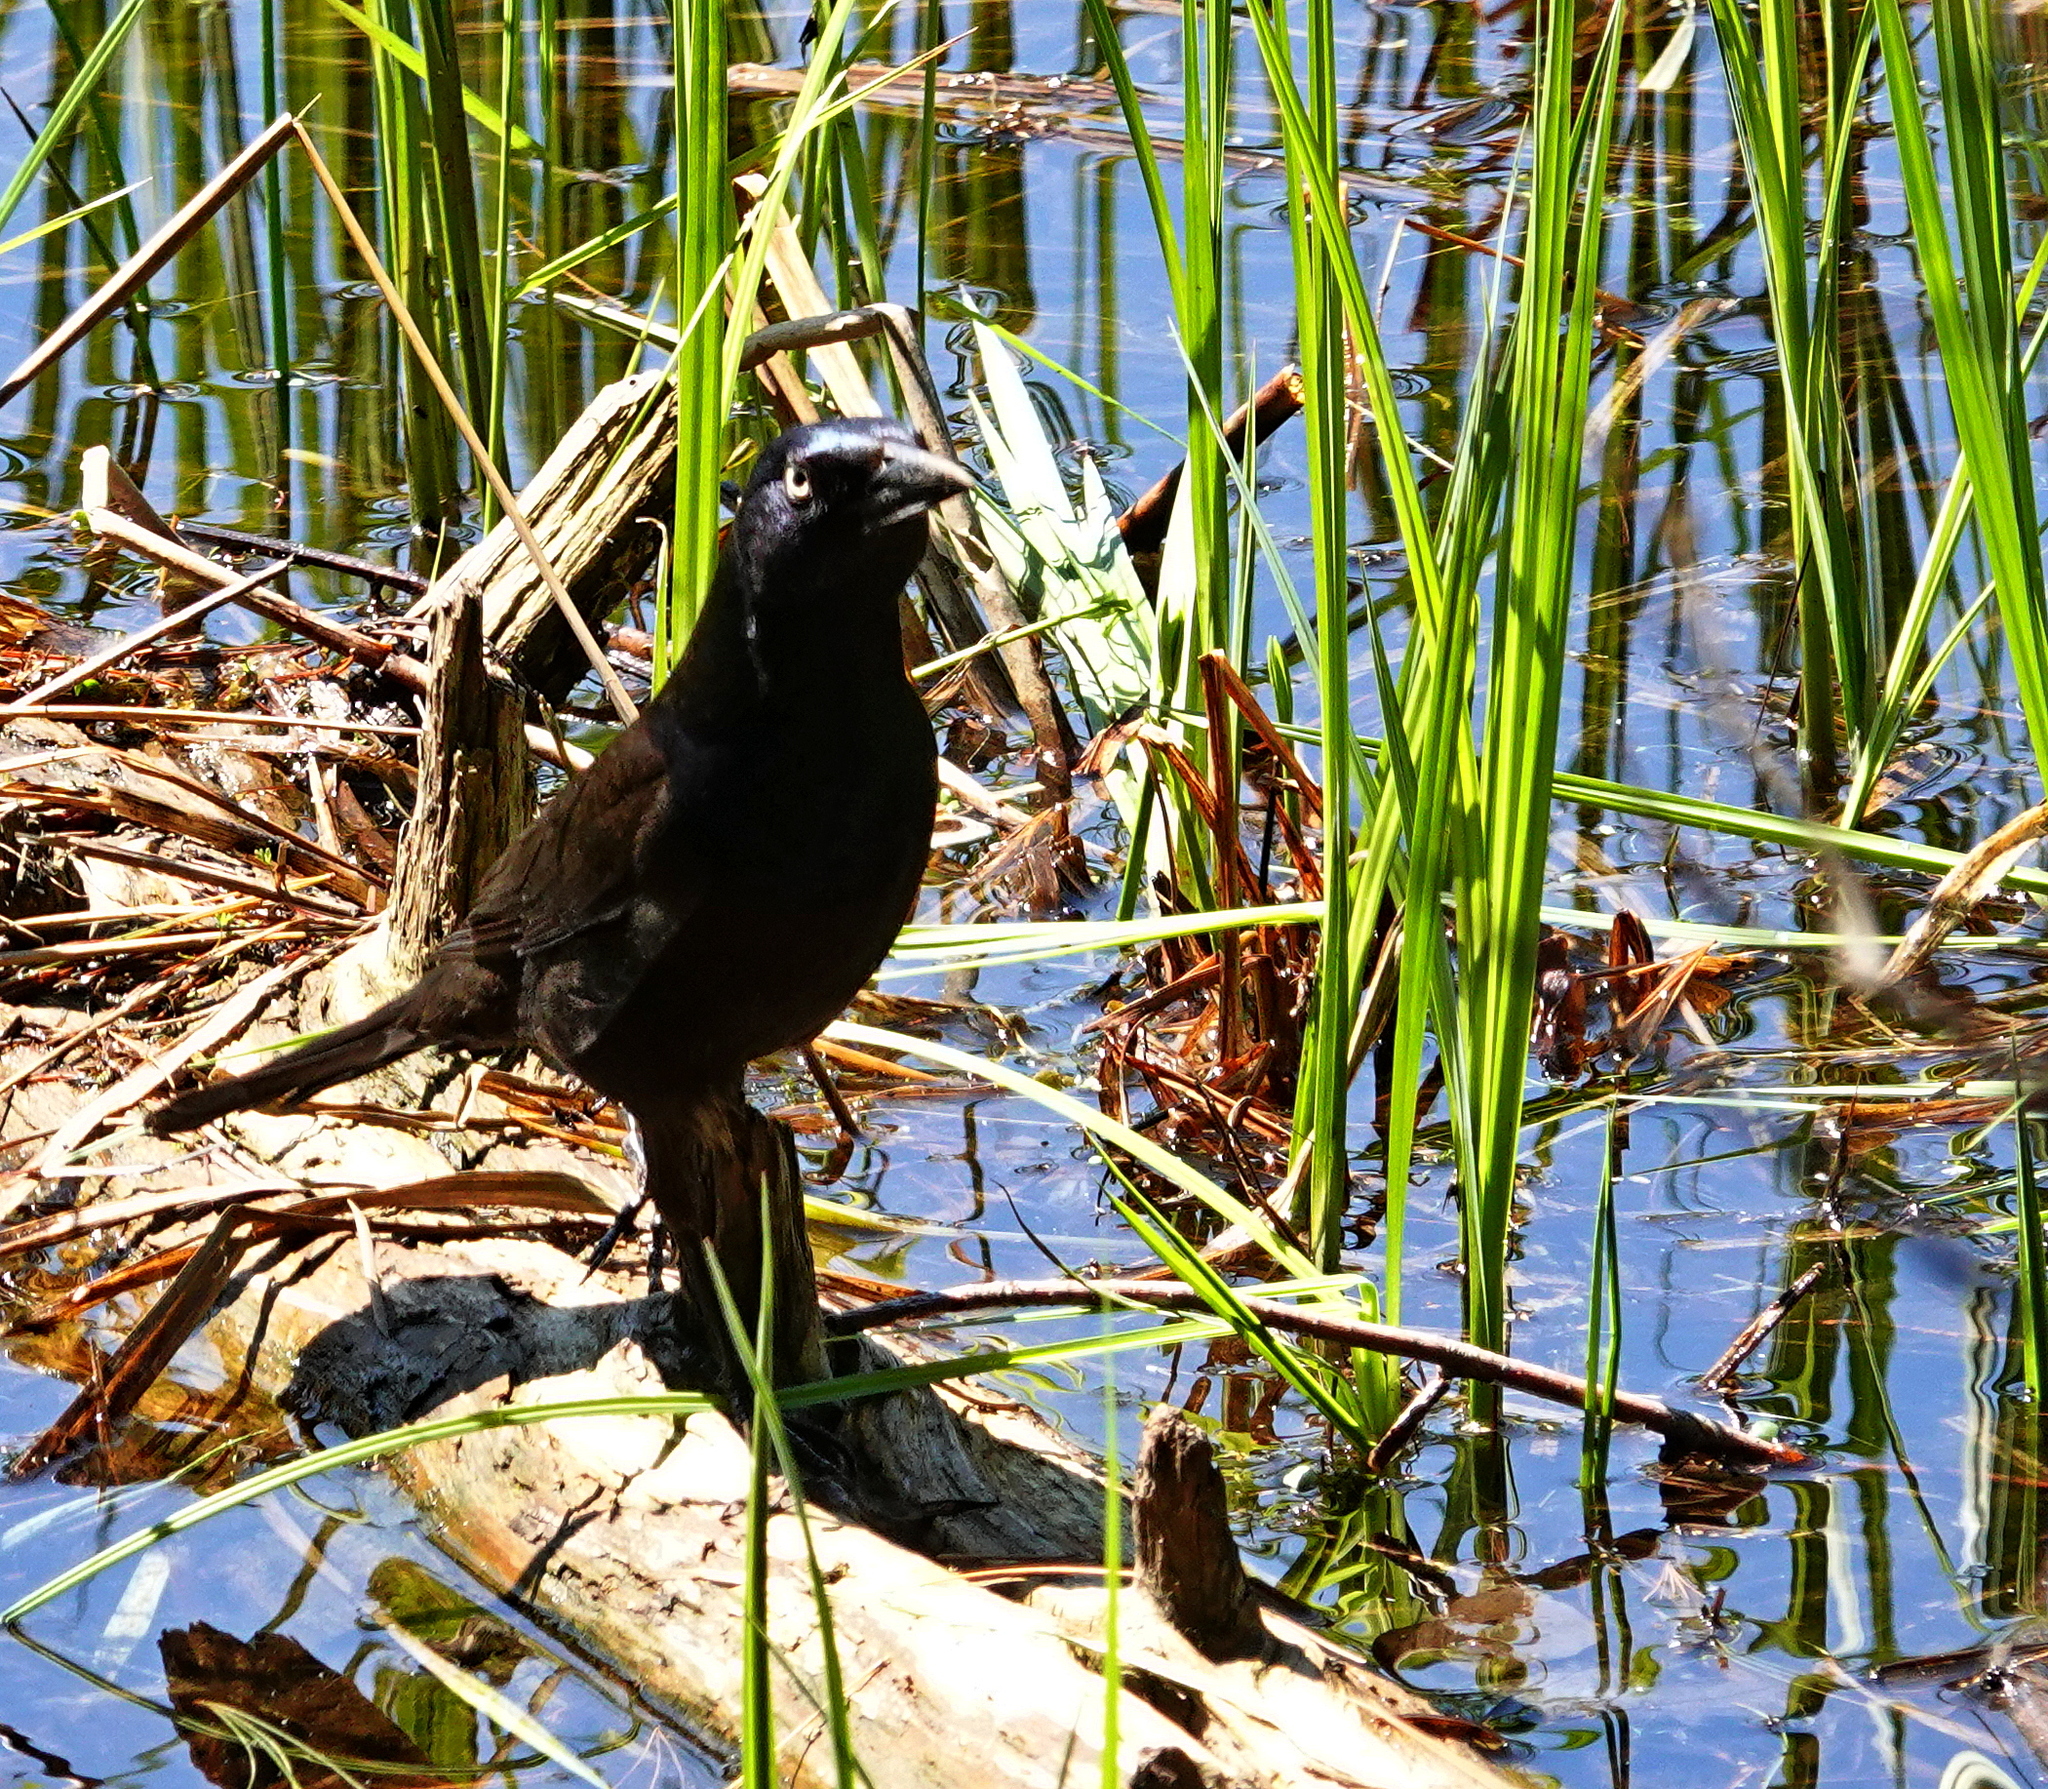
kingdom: Animalia
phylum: Chordata
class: Aves
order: Passeriformes
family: Icteridae
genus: Quiscalus
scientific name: Quiscalus quiscula
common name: Common grackle
